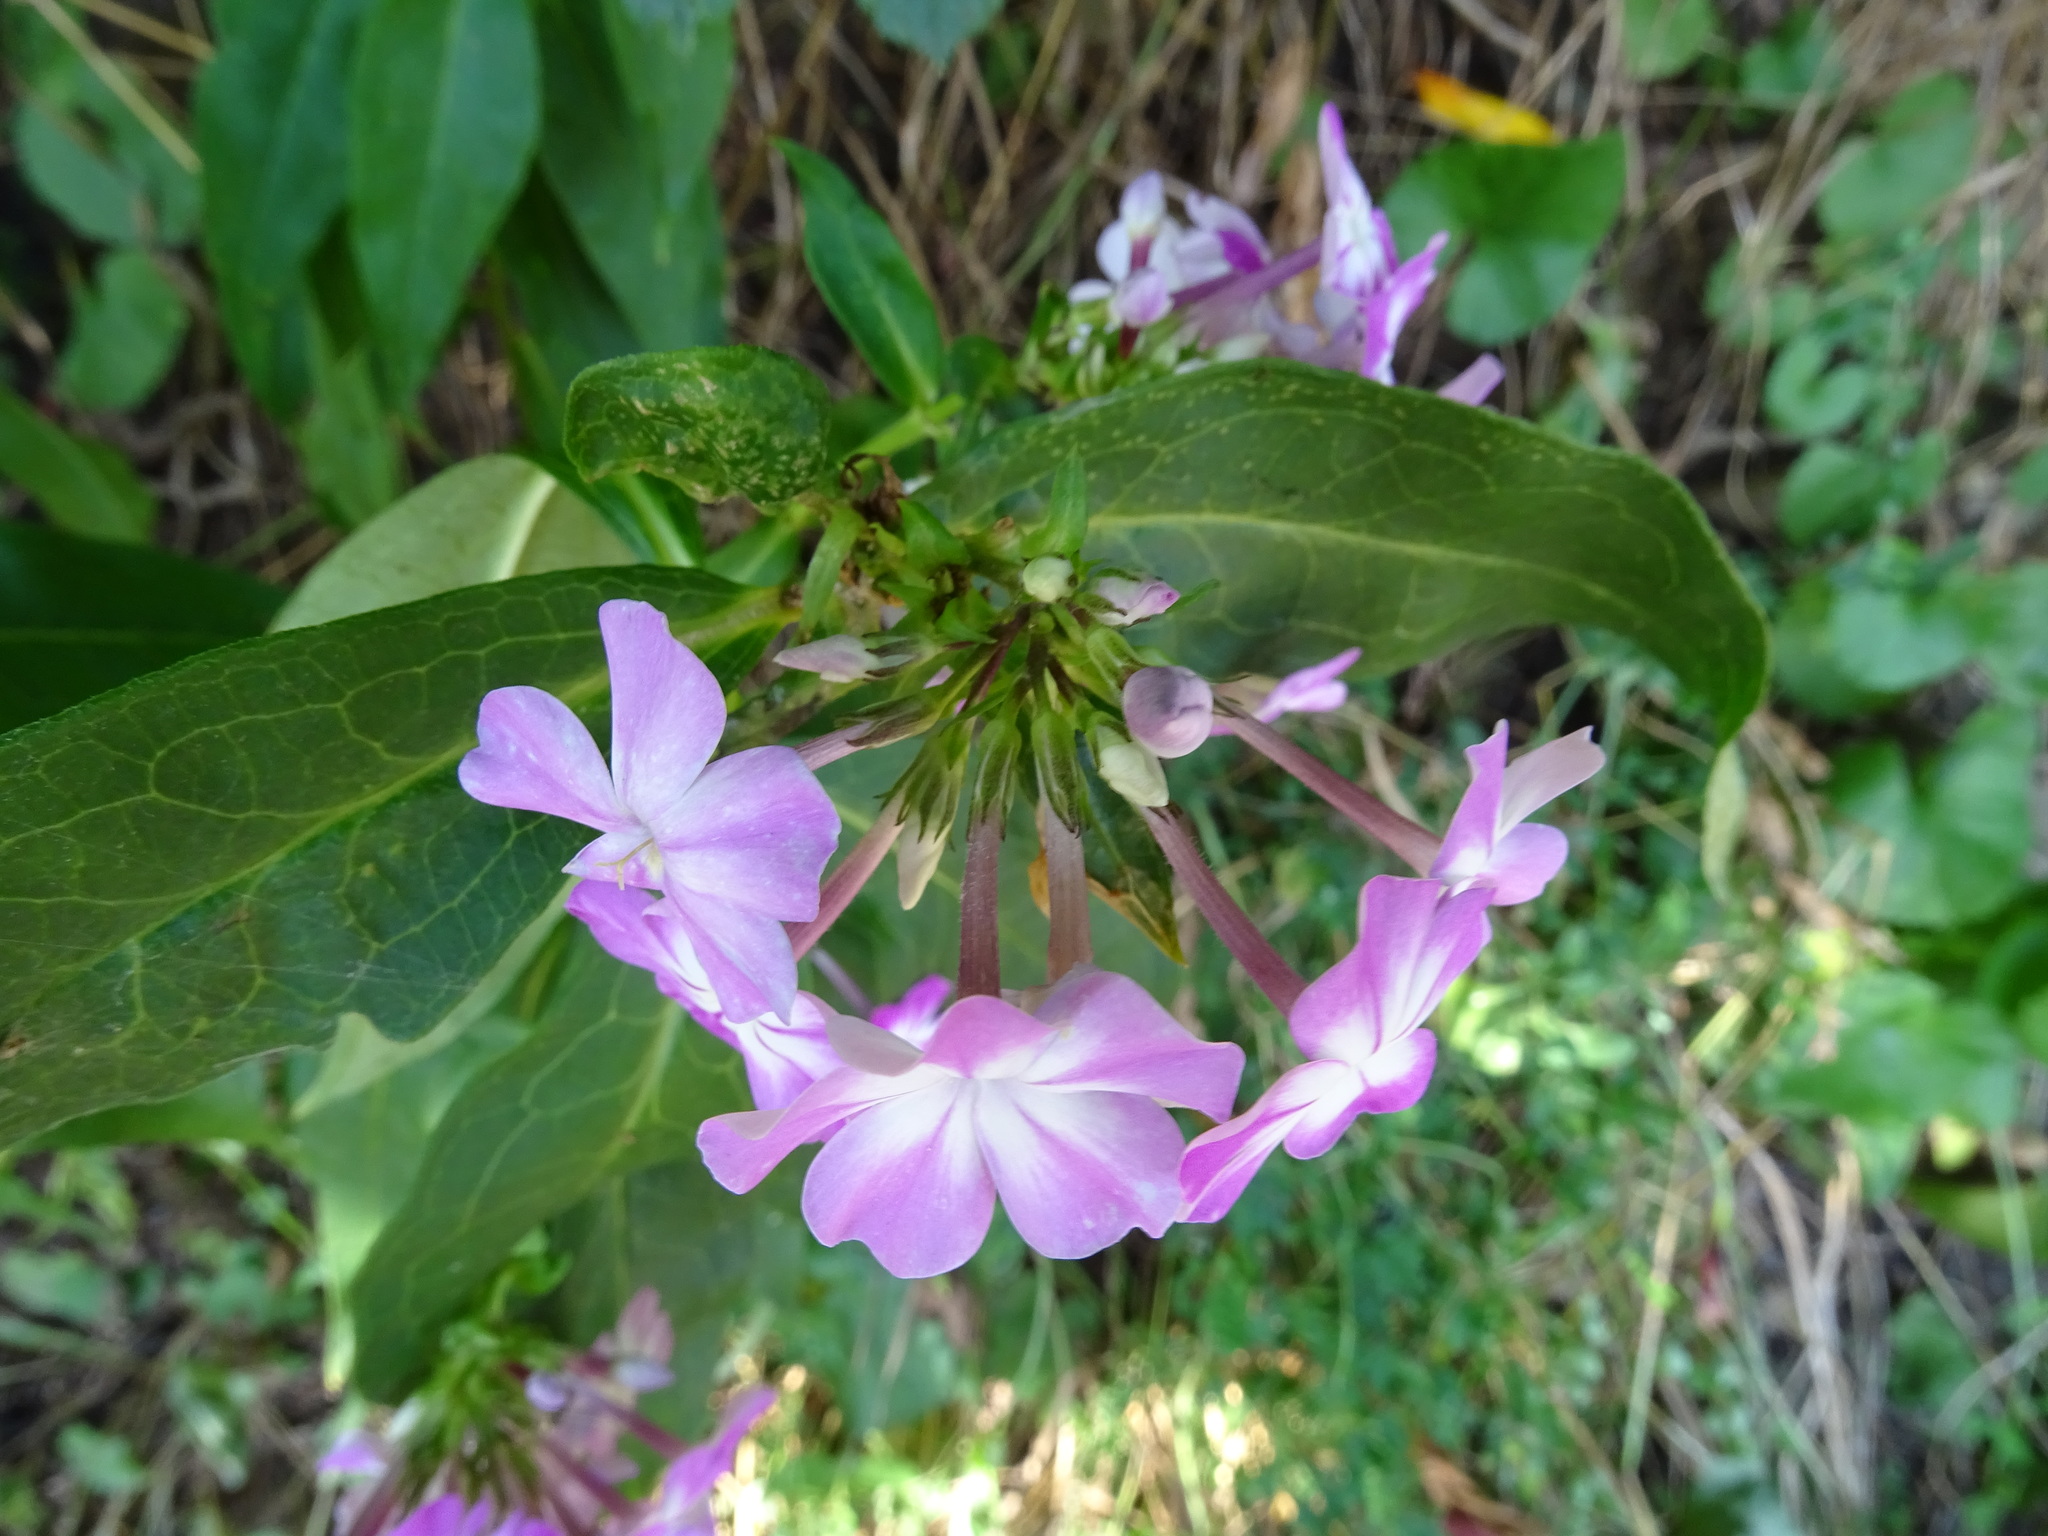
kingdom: Plantae
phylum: Tracheophyta
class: Magnoliopsida
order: Ericales
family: Polemoniaceae
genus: Phlox
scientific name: Phlox paniculata
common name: Fall phlox
